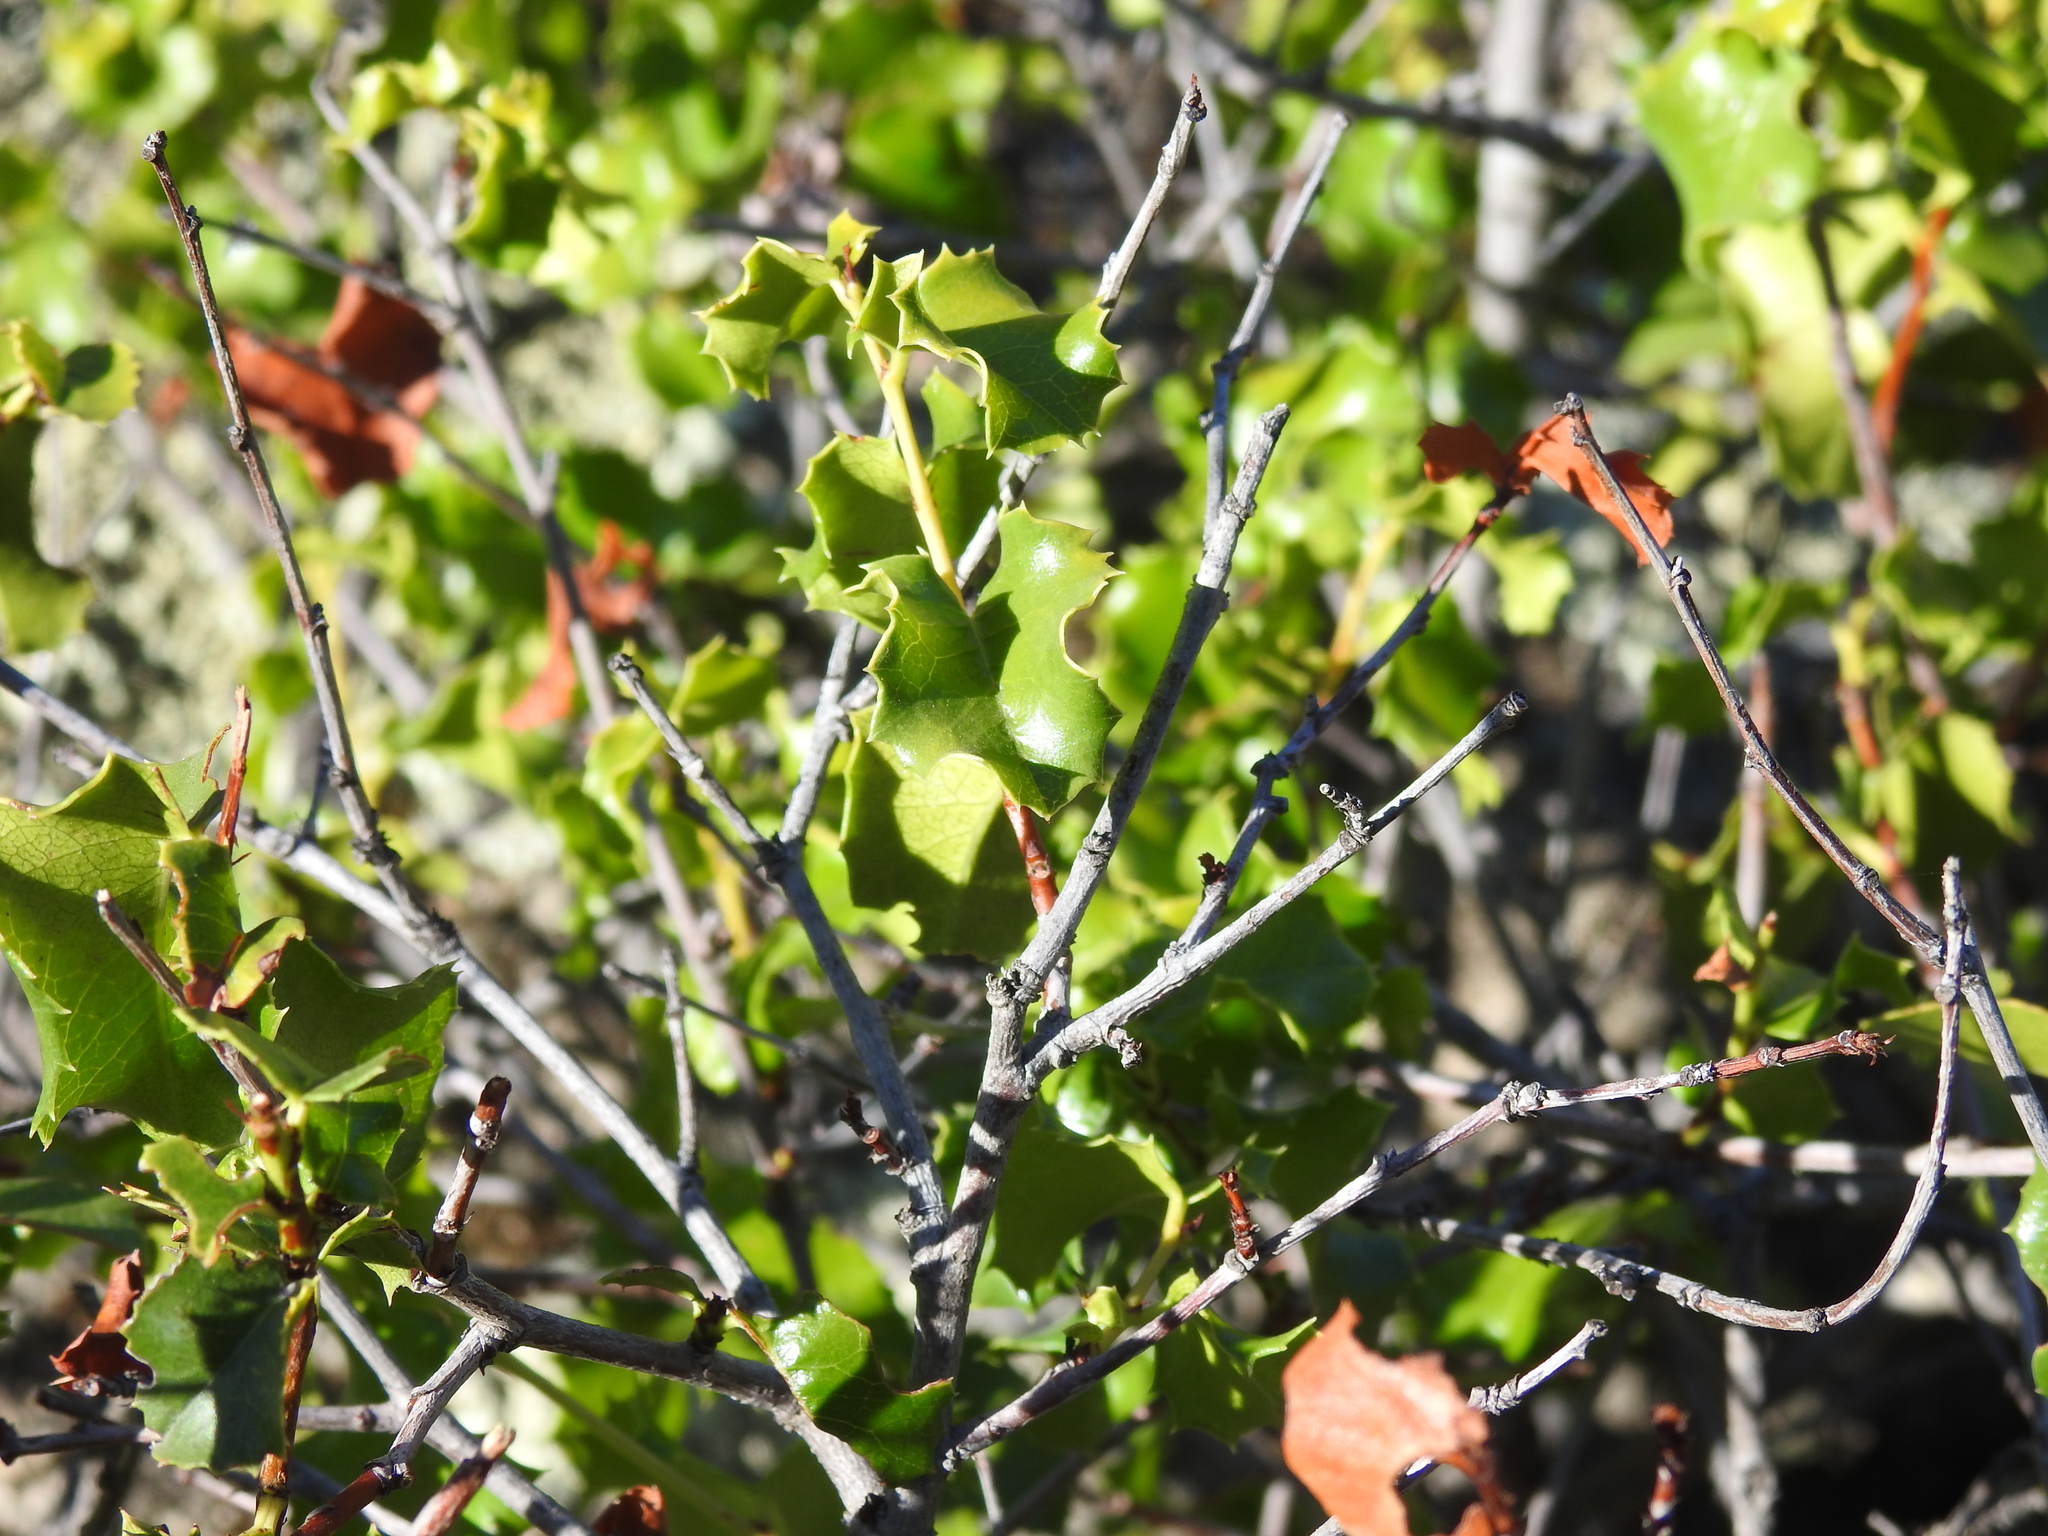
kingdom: Plantae
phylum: Tracheophyta
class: Magnoliopsida
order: Rosales
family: Rosaceae
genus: Prunus
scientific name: Prunus ilicifolia
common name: Hollyleaf cherry
